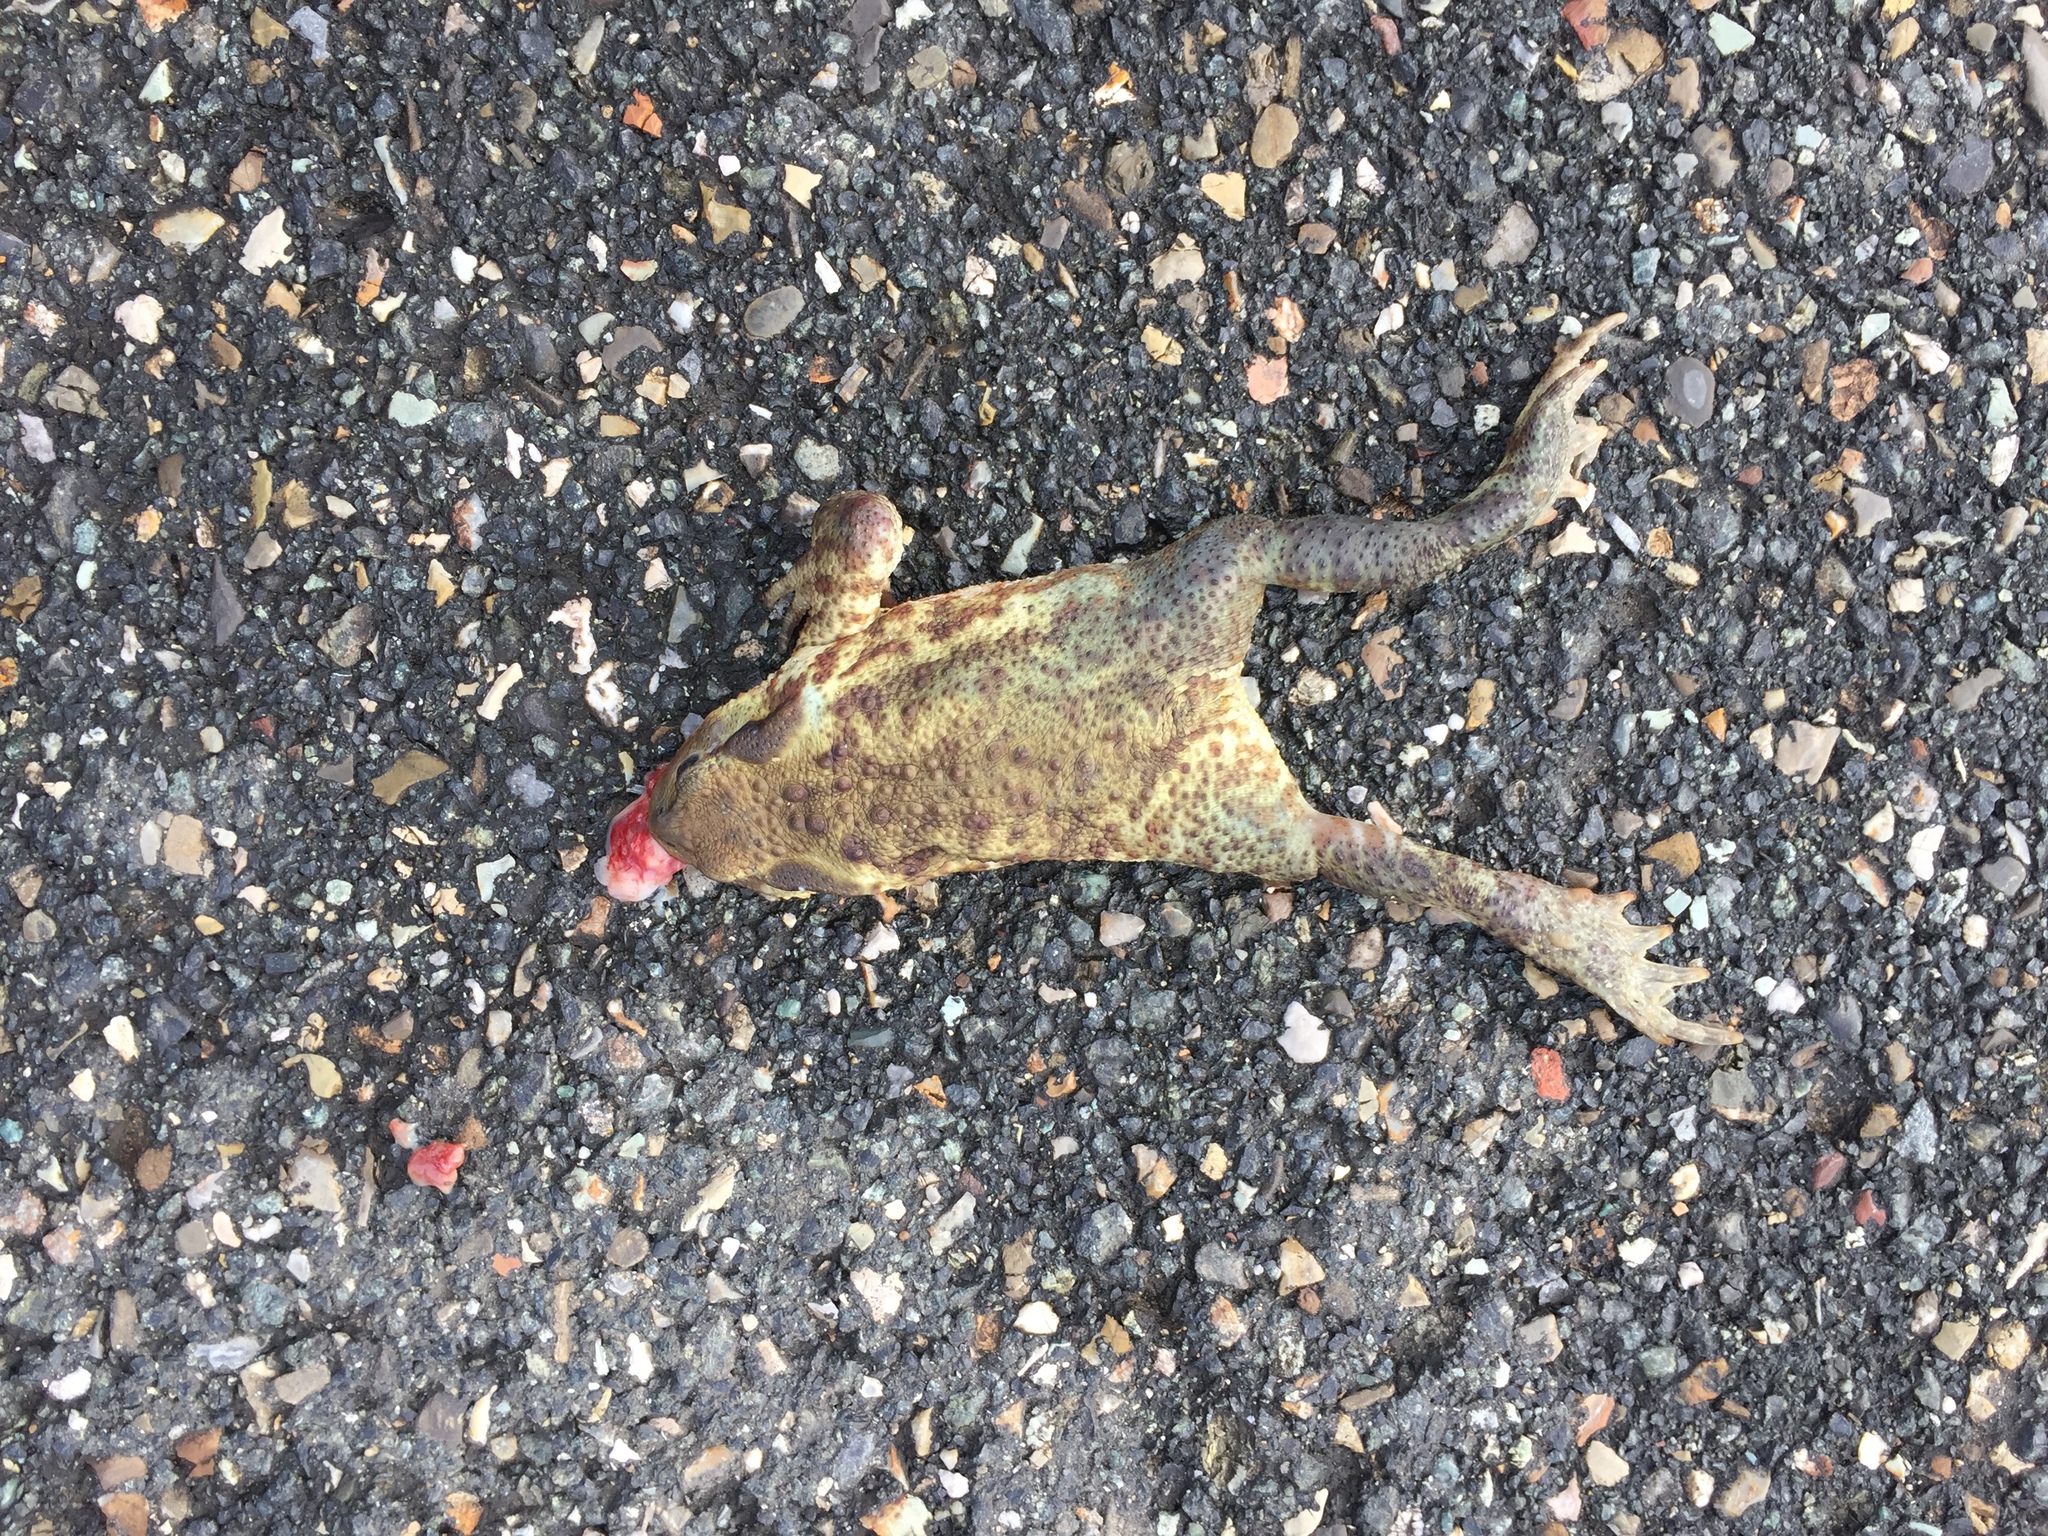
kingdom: Animalia
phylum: Chordata
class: Amphibia
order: Anura
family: Bufonidae
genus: Bufo
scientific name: Bufo bufo
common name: Common toad
